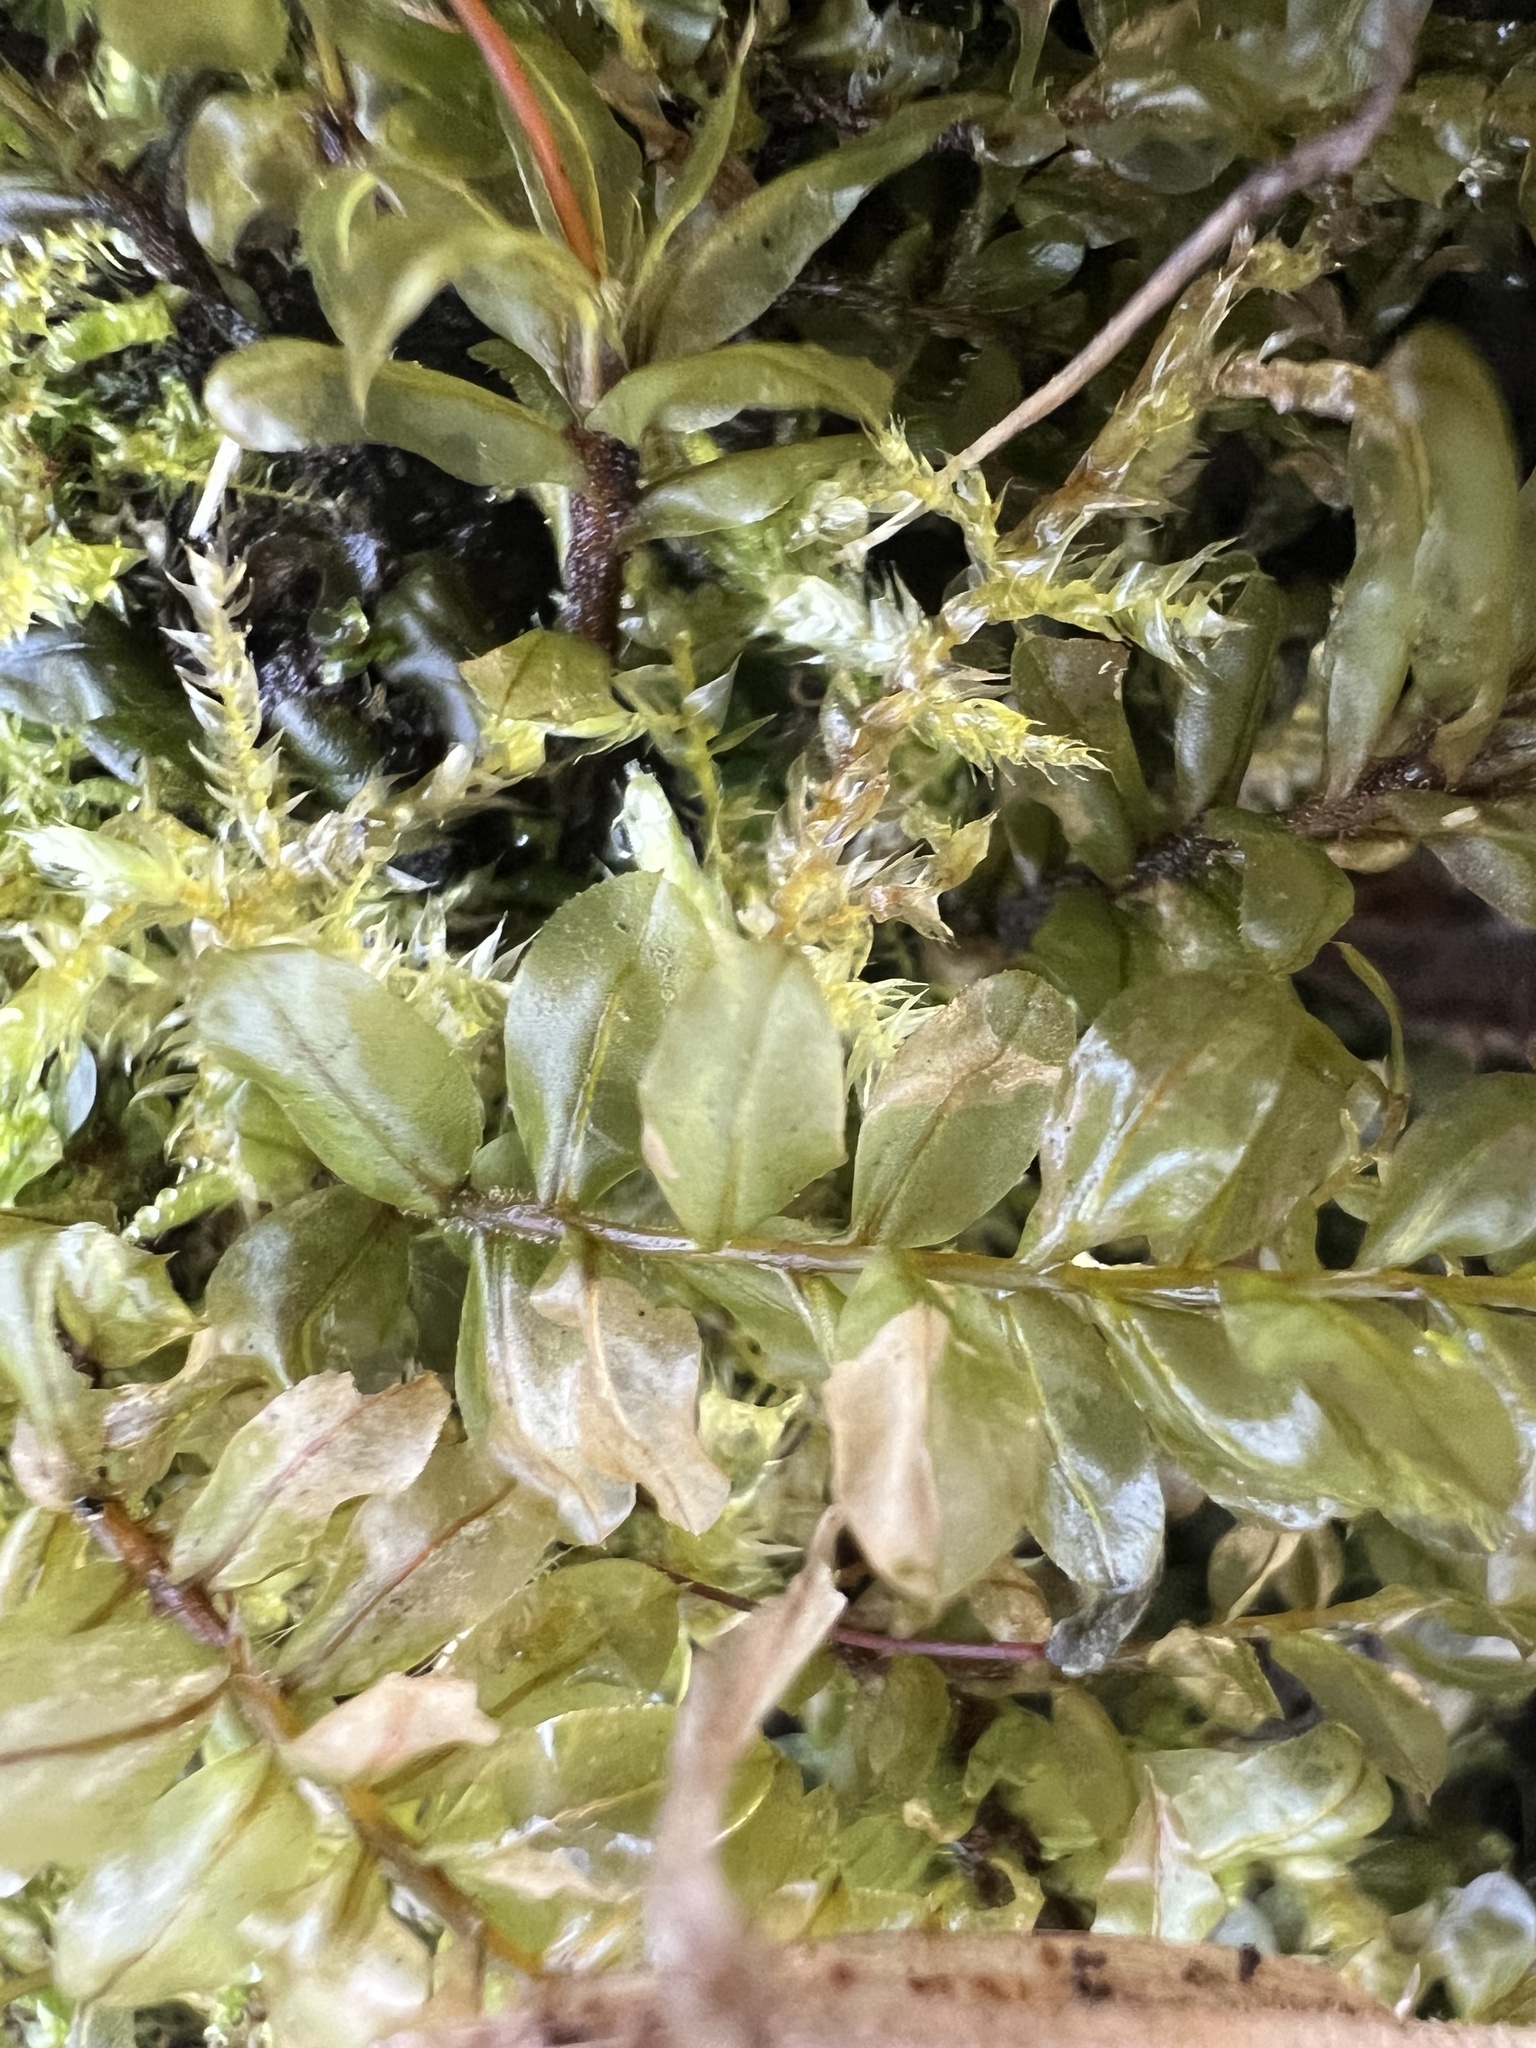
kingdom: Plantae
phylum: Bryophyta
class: Bryopsida
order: Bryales
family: Mniaceae
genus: Plagiomnium
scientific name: Plagiomnium cuspidatum
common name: Woodsy leafy moss
